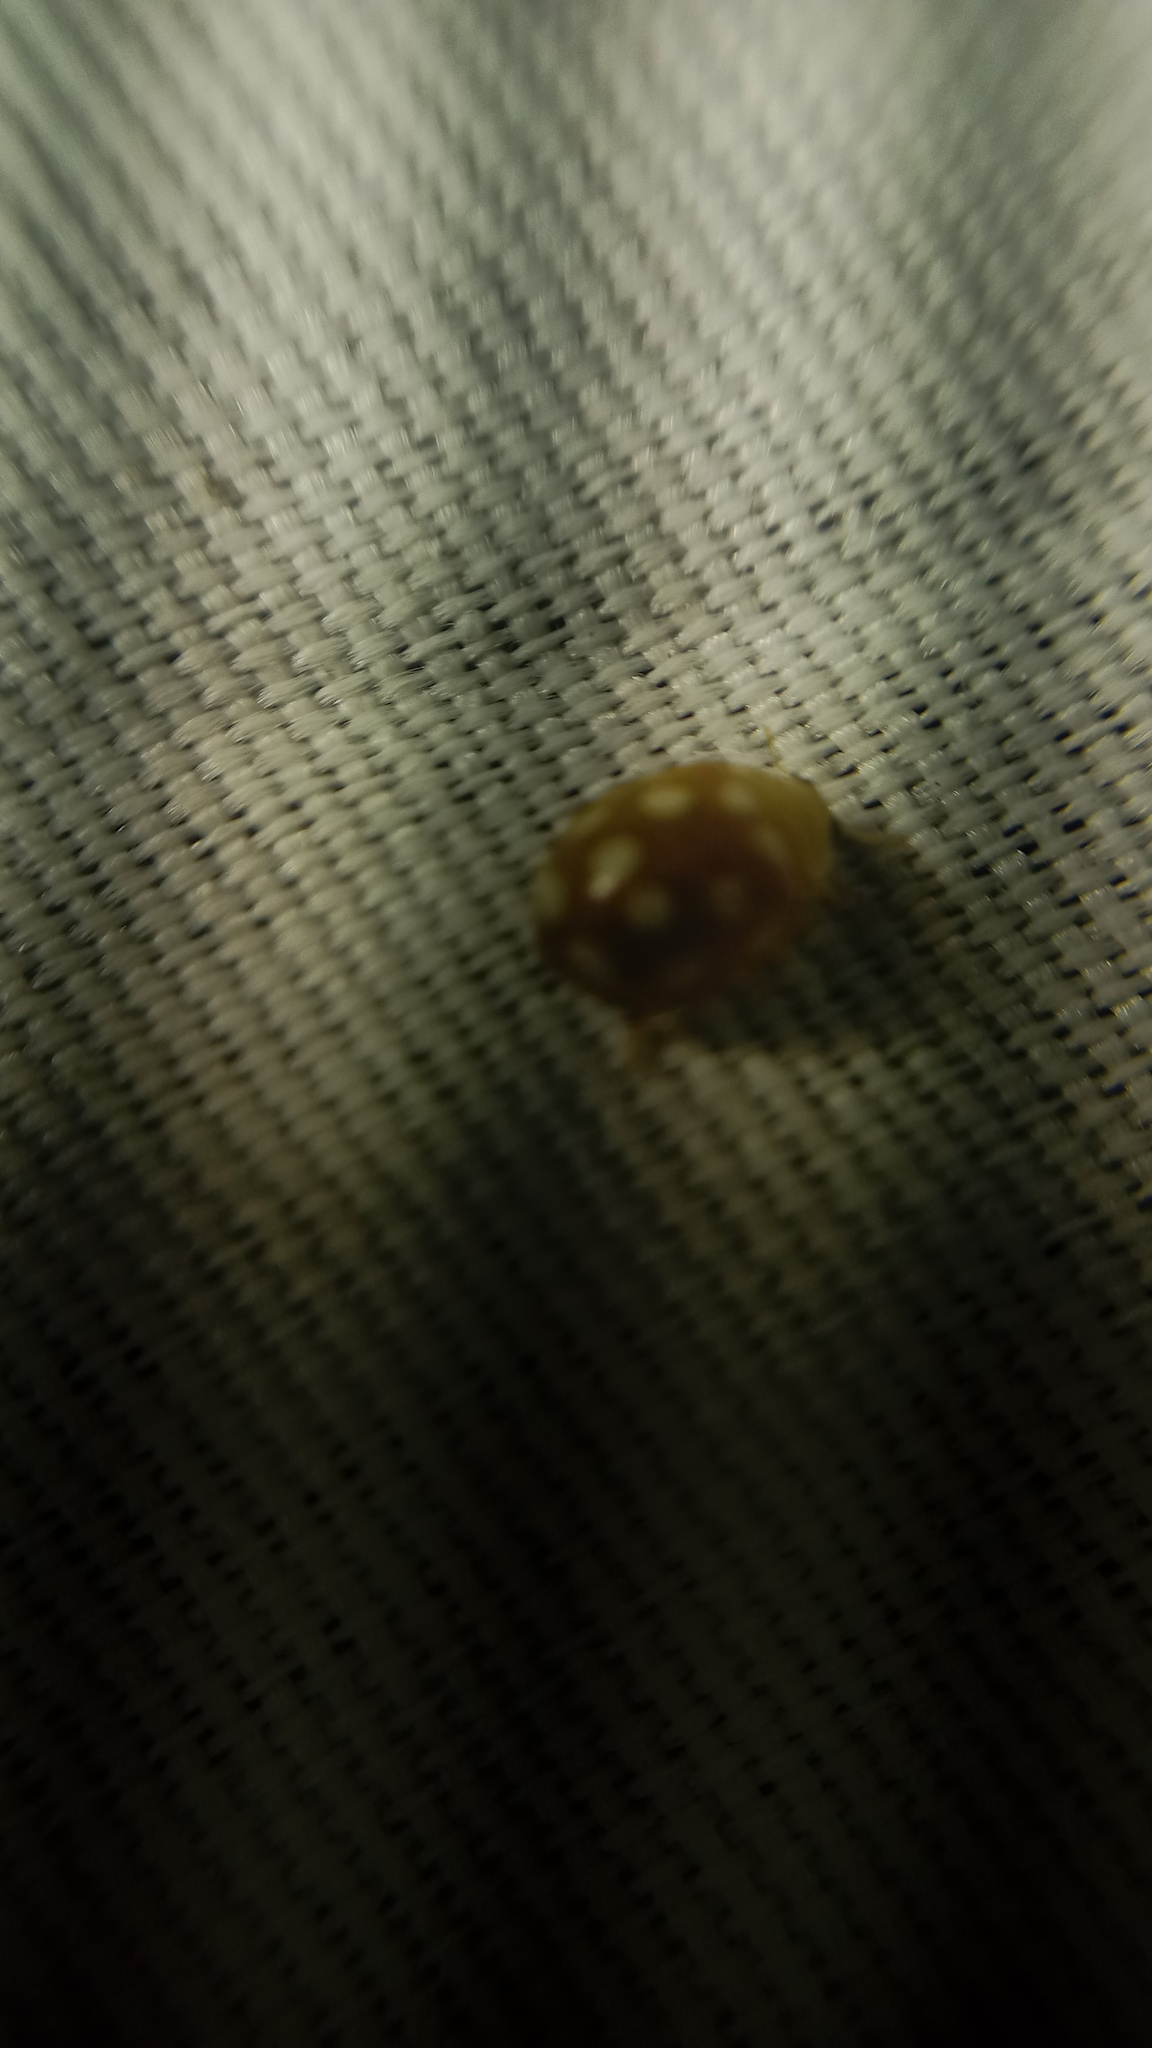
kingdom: Animalia
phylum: Arthropoda
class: Insecta
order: Coleoptera
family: Coccinellidae
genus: Vibidia
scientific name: Vibidia duodecimguttata
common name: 12-spot ladybird
